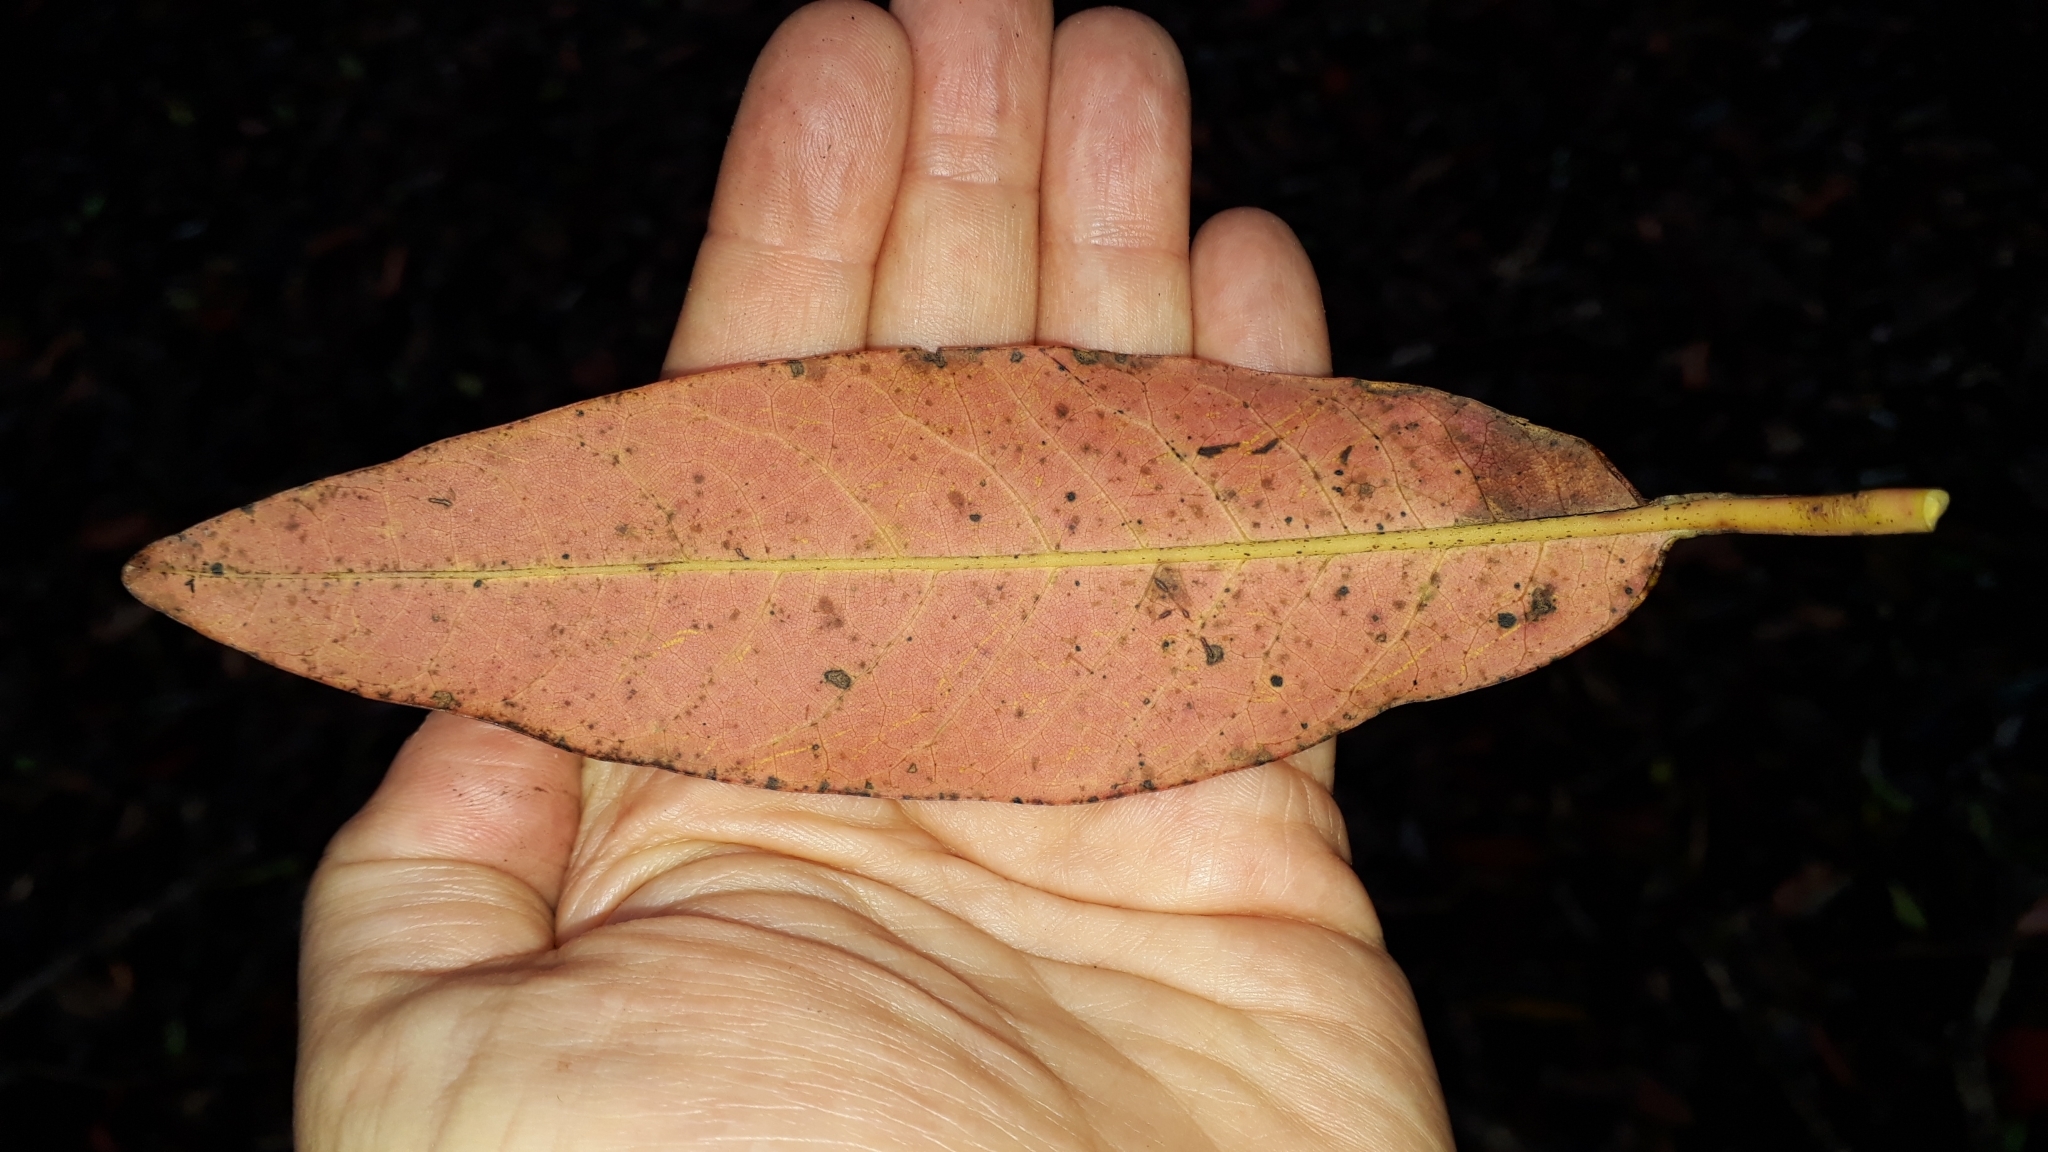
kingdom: Plantae
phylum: Tracheophyta
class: Magnoliopsida
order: Laurales
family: Lauraceae
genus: Persea
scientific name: Persea indica
